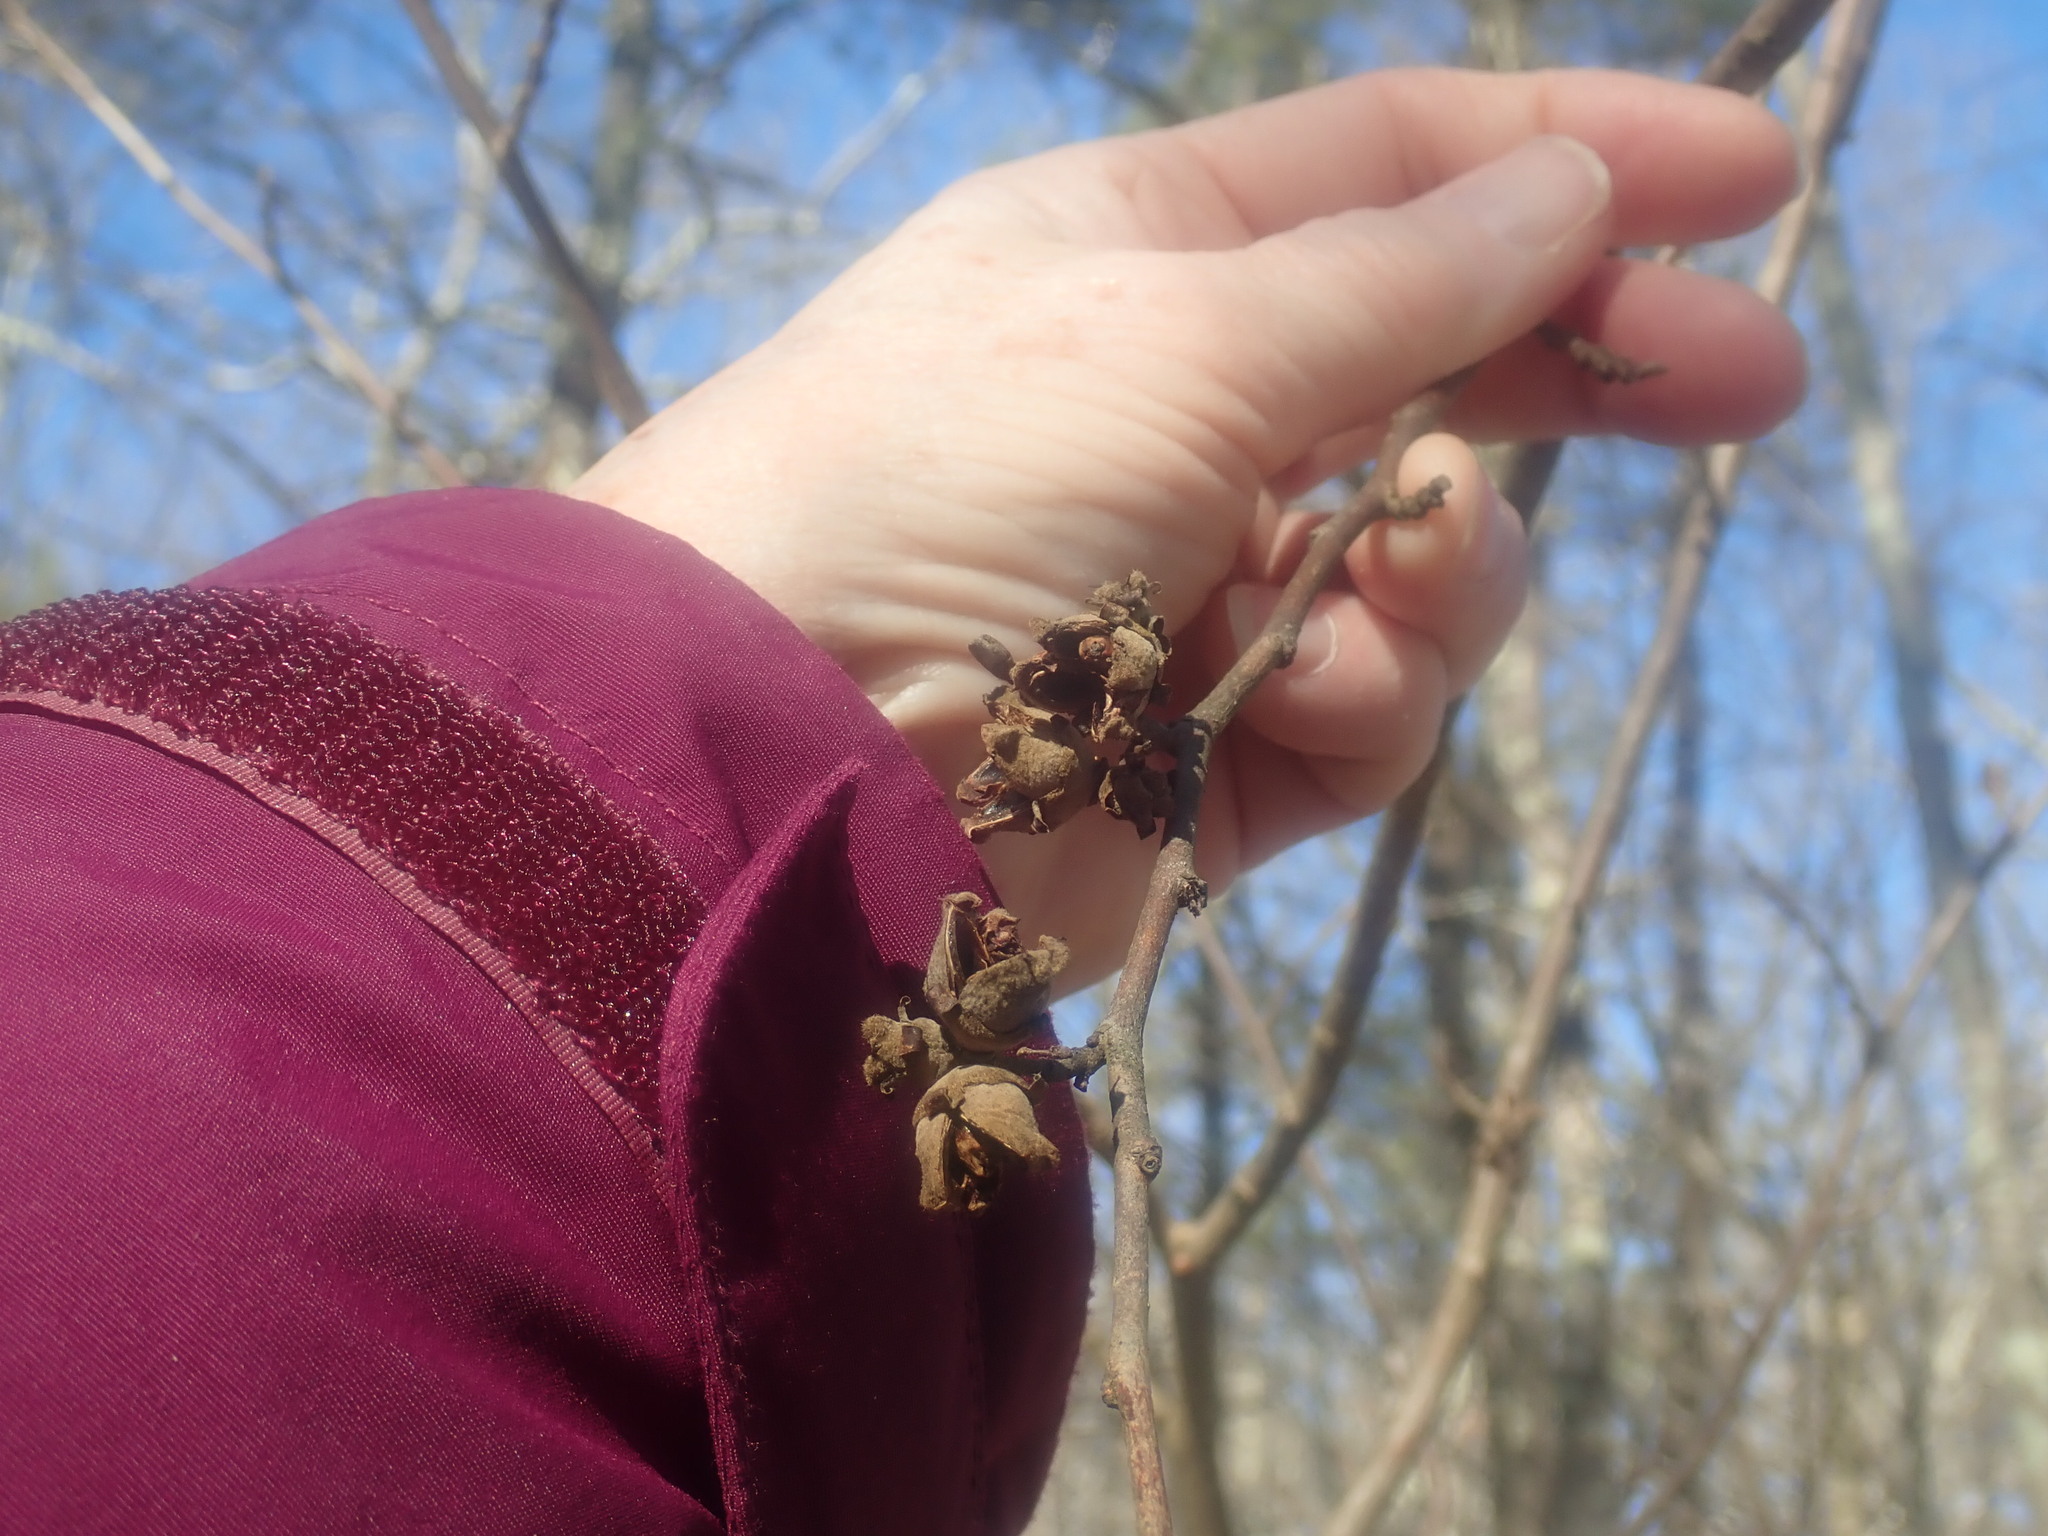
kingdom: Plantae
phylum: Tracheophyta
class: Magnoliopsida
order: Saxifragales
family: Hamamelidaceae
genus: Hamamelis
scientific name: Hamamelis virginiana
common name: Witch-hazel
